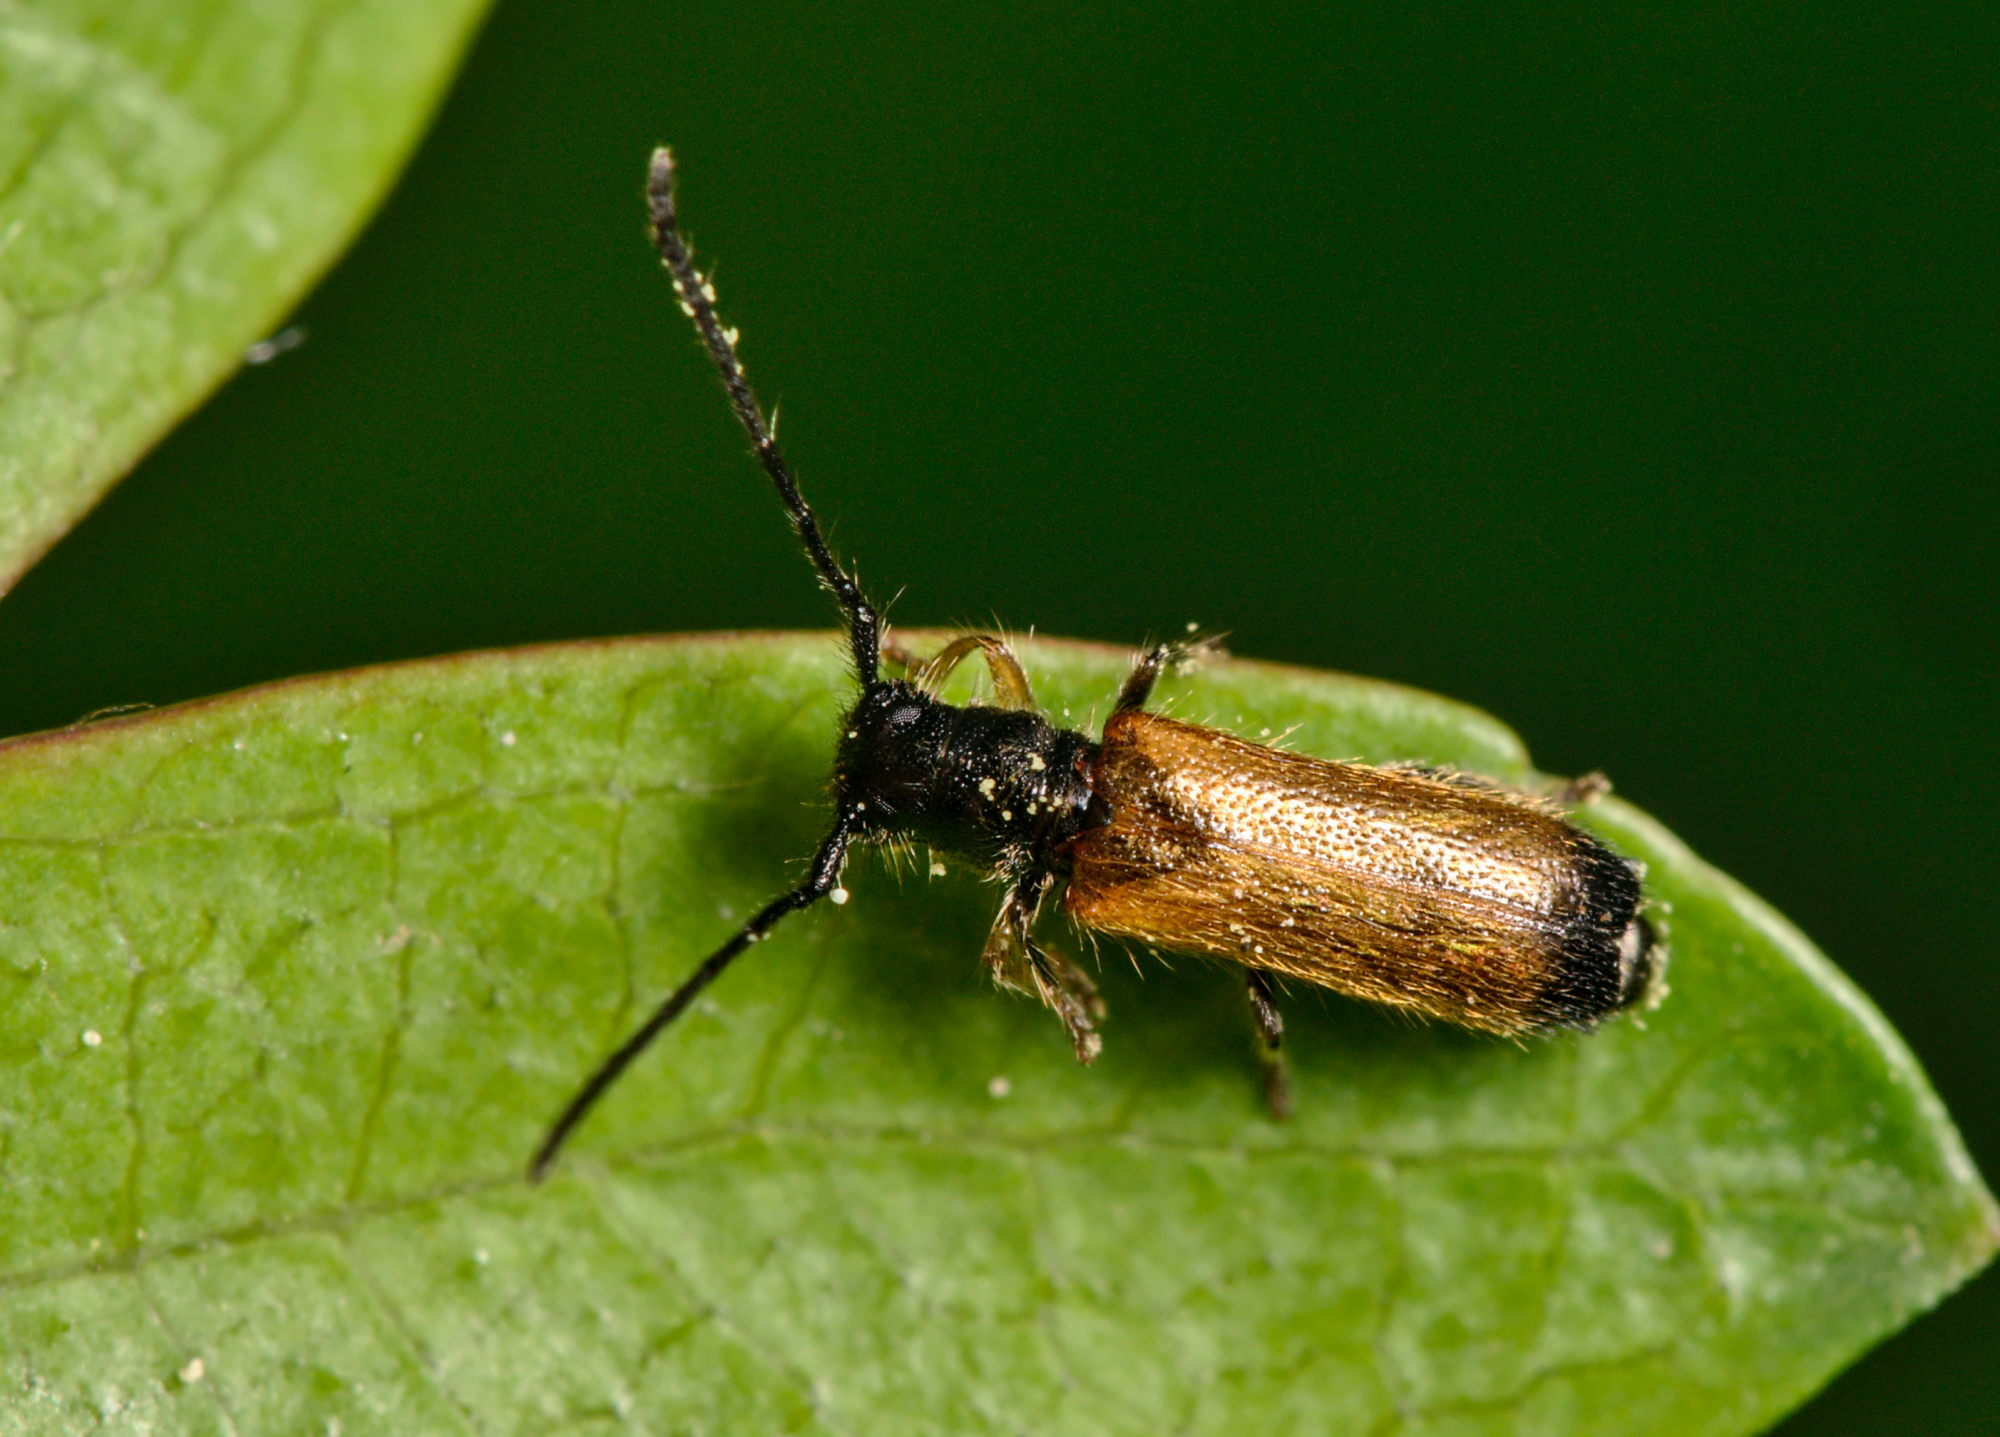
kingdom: Animalia
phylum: Arthropoda
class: Insecta
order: Coleoptera
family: Cerambycidae
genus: Tetrops
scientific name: Tetrops praeustus
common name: Plum beetle
